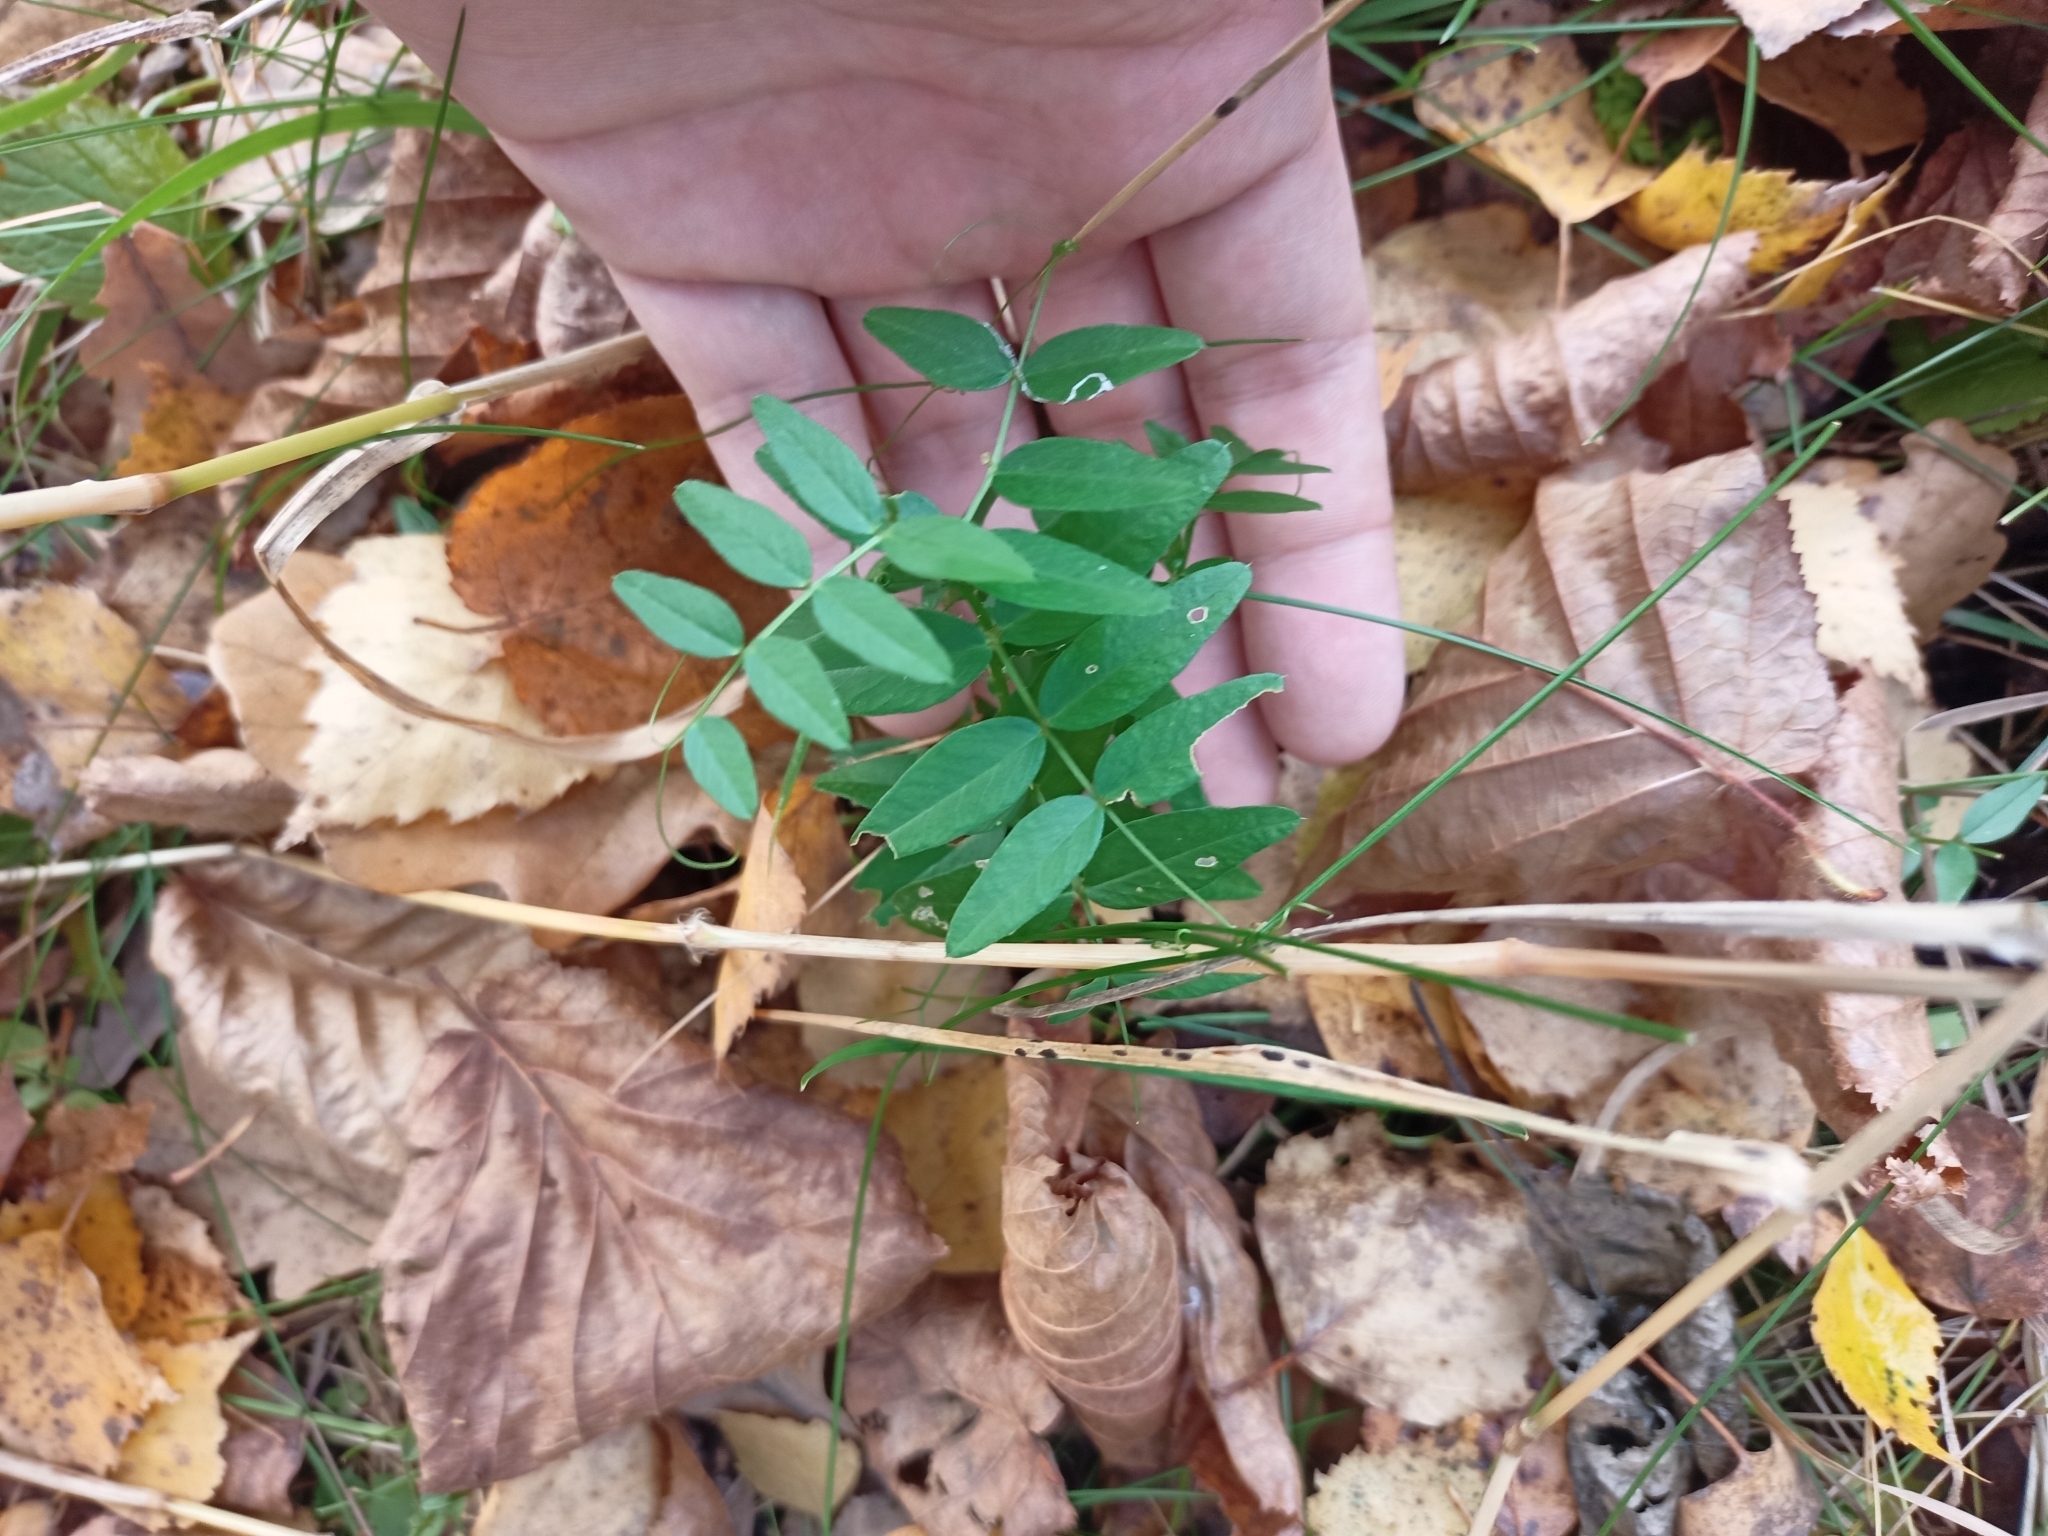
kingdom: Plantae
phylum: Tracheophyta
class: Magnoliopsida
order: Fabales
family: Fabaceae
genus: Vicia
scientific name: Vicia sepium
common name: Bush vetch
